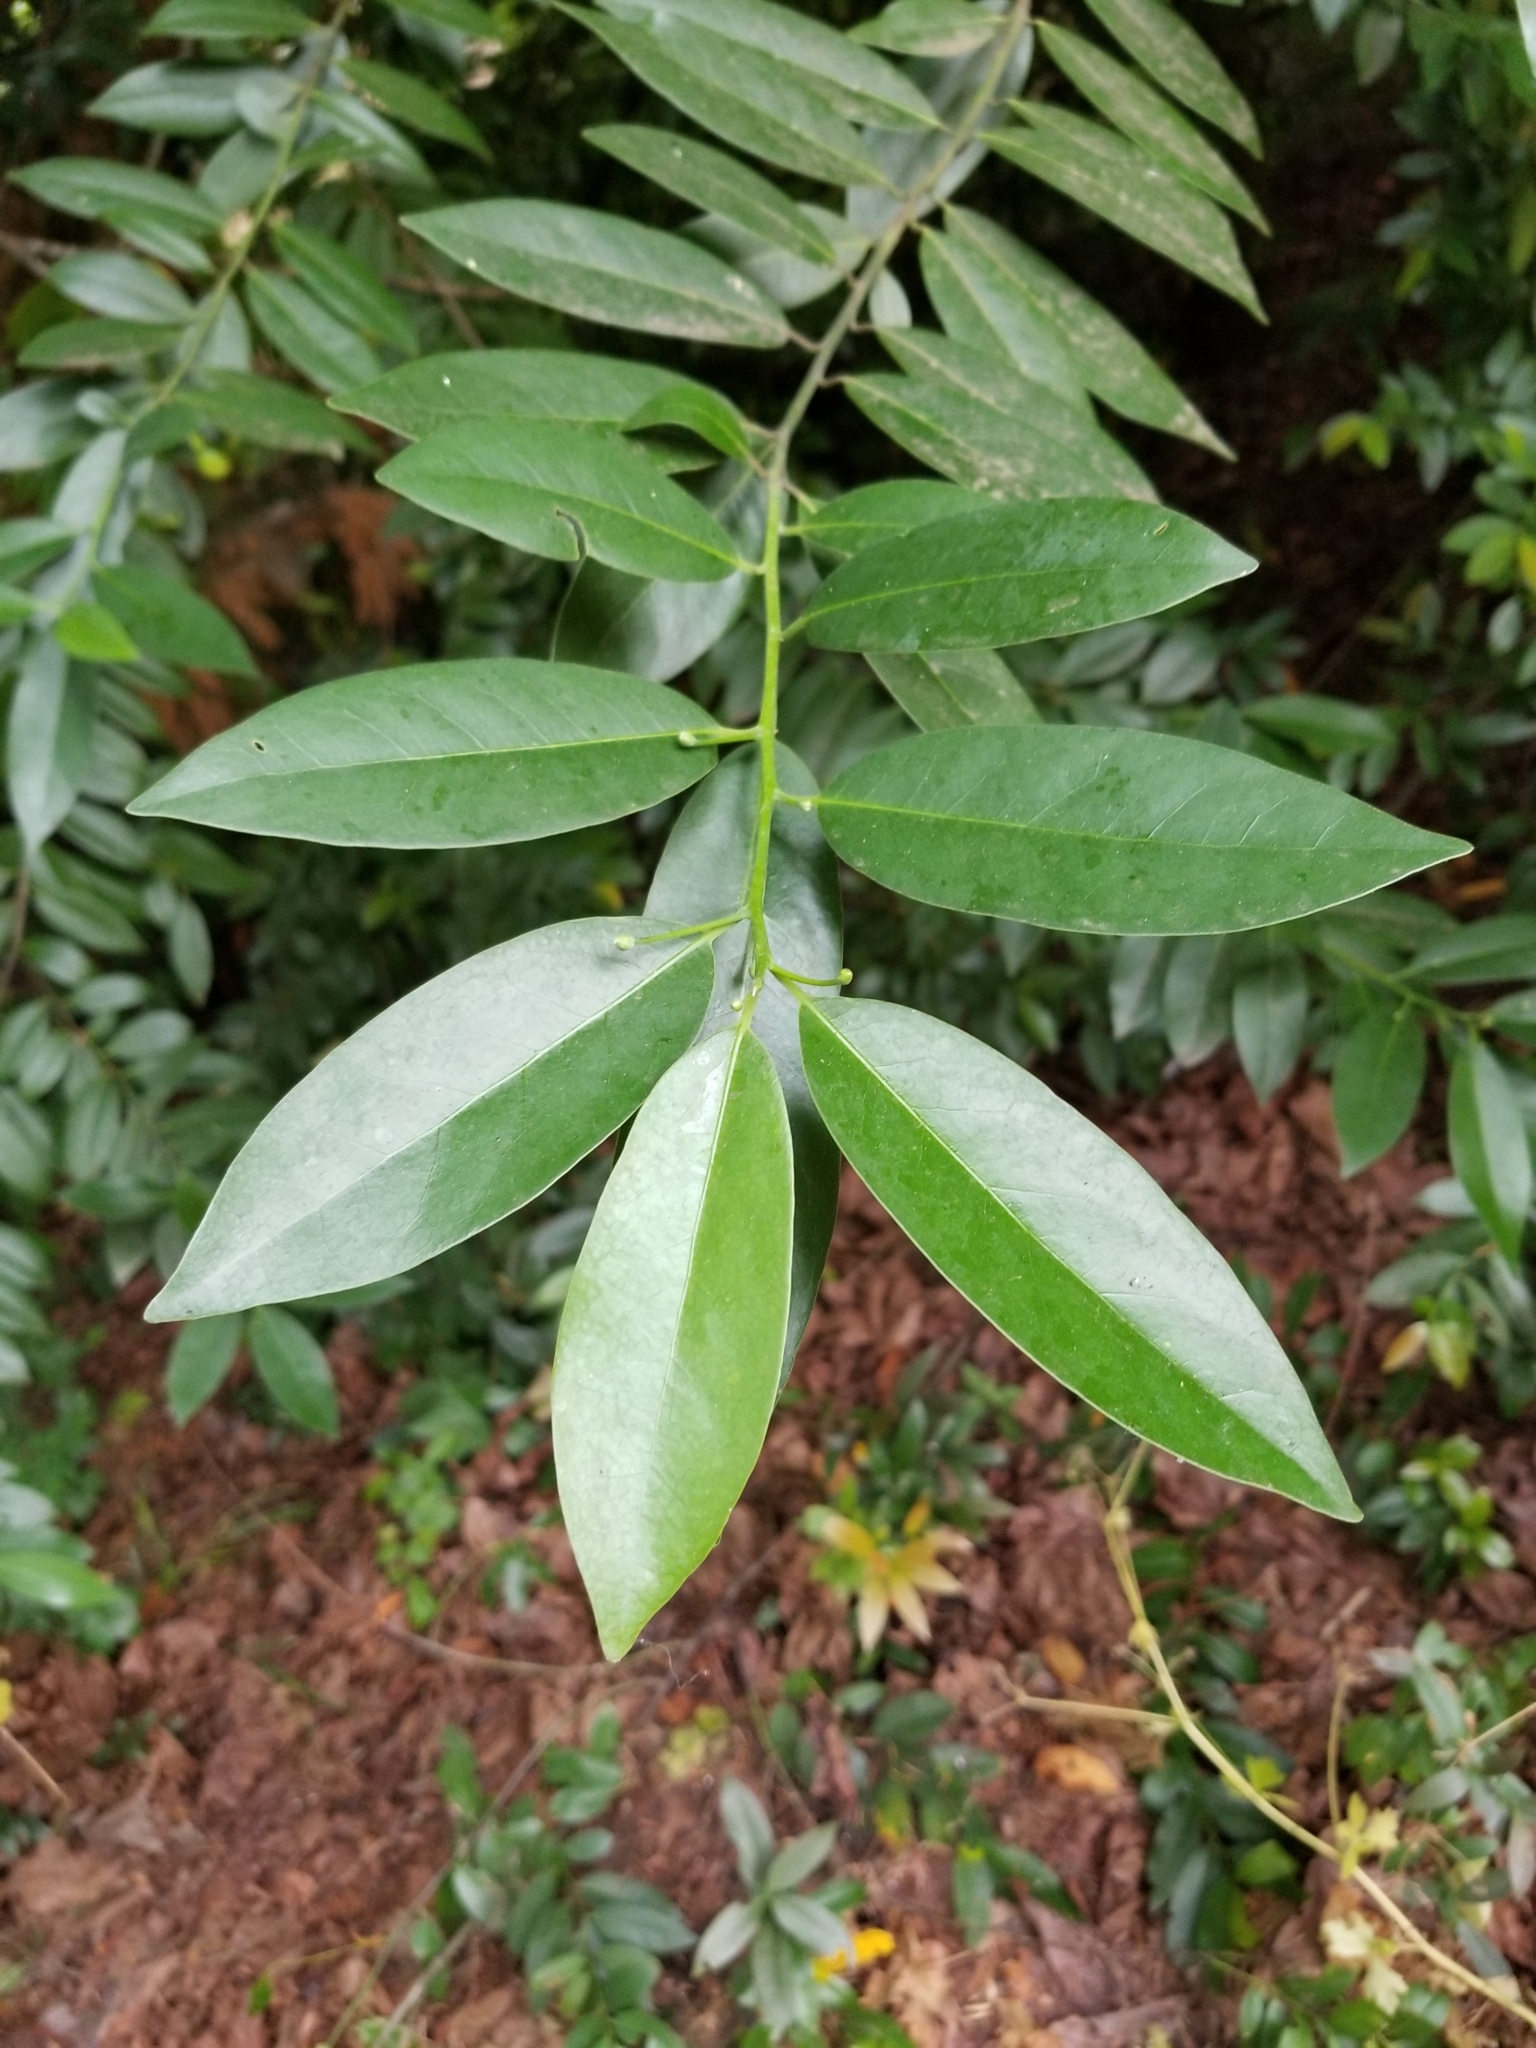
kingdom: Plantae
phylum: Tracheophyta
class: Magnoliopsida
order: Laurales
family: Lauraceae
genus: Umbellularia
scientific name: Umbellularia californica
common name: California bay
